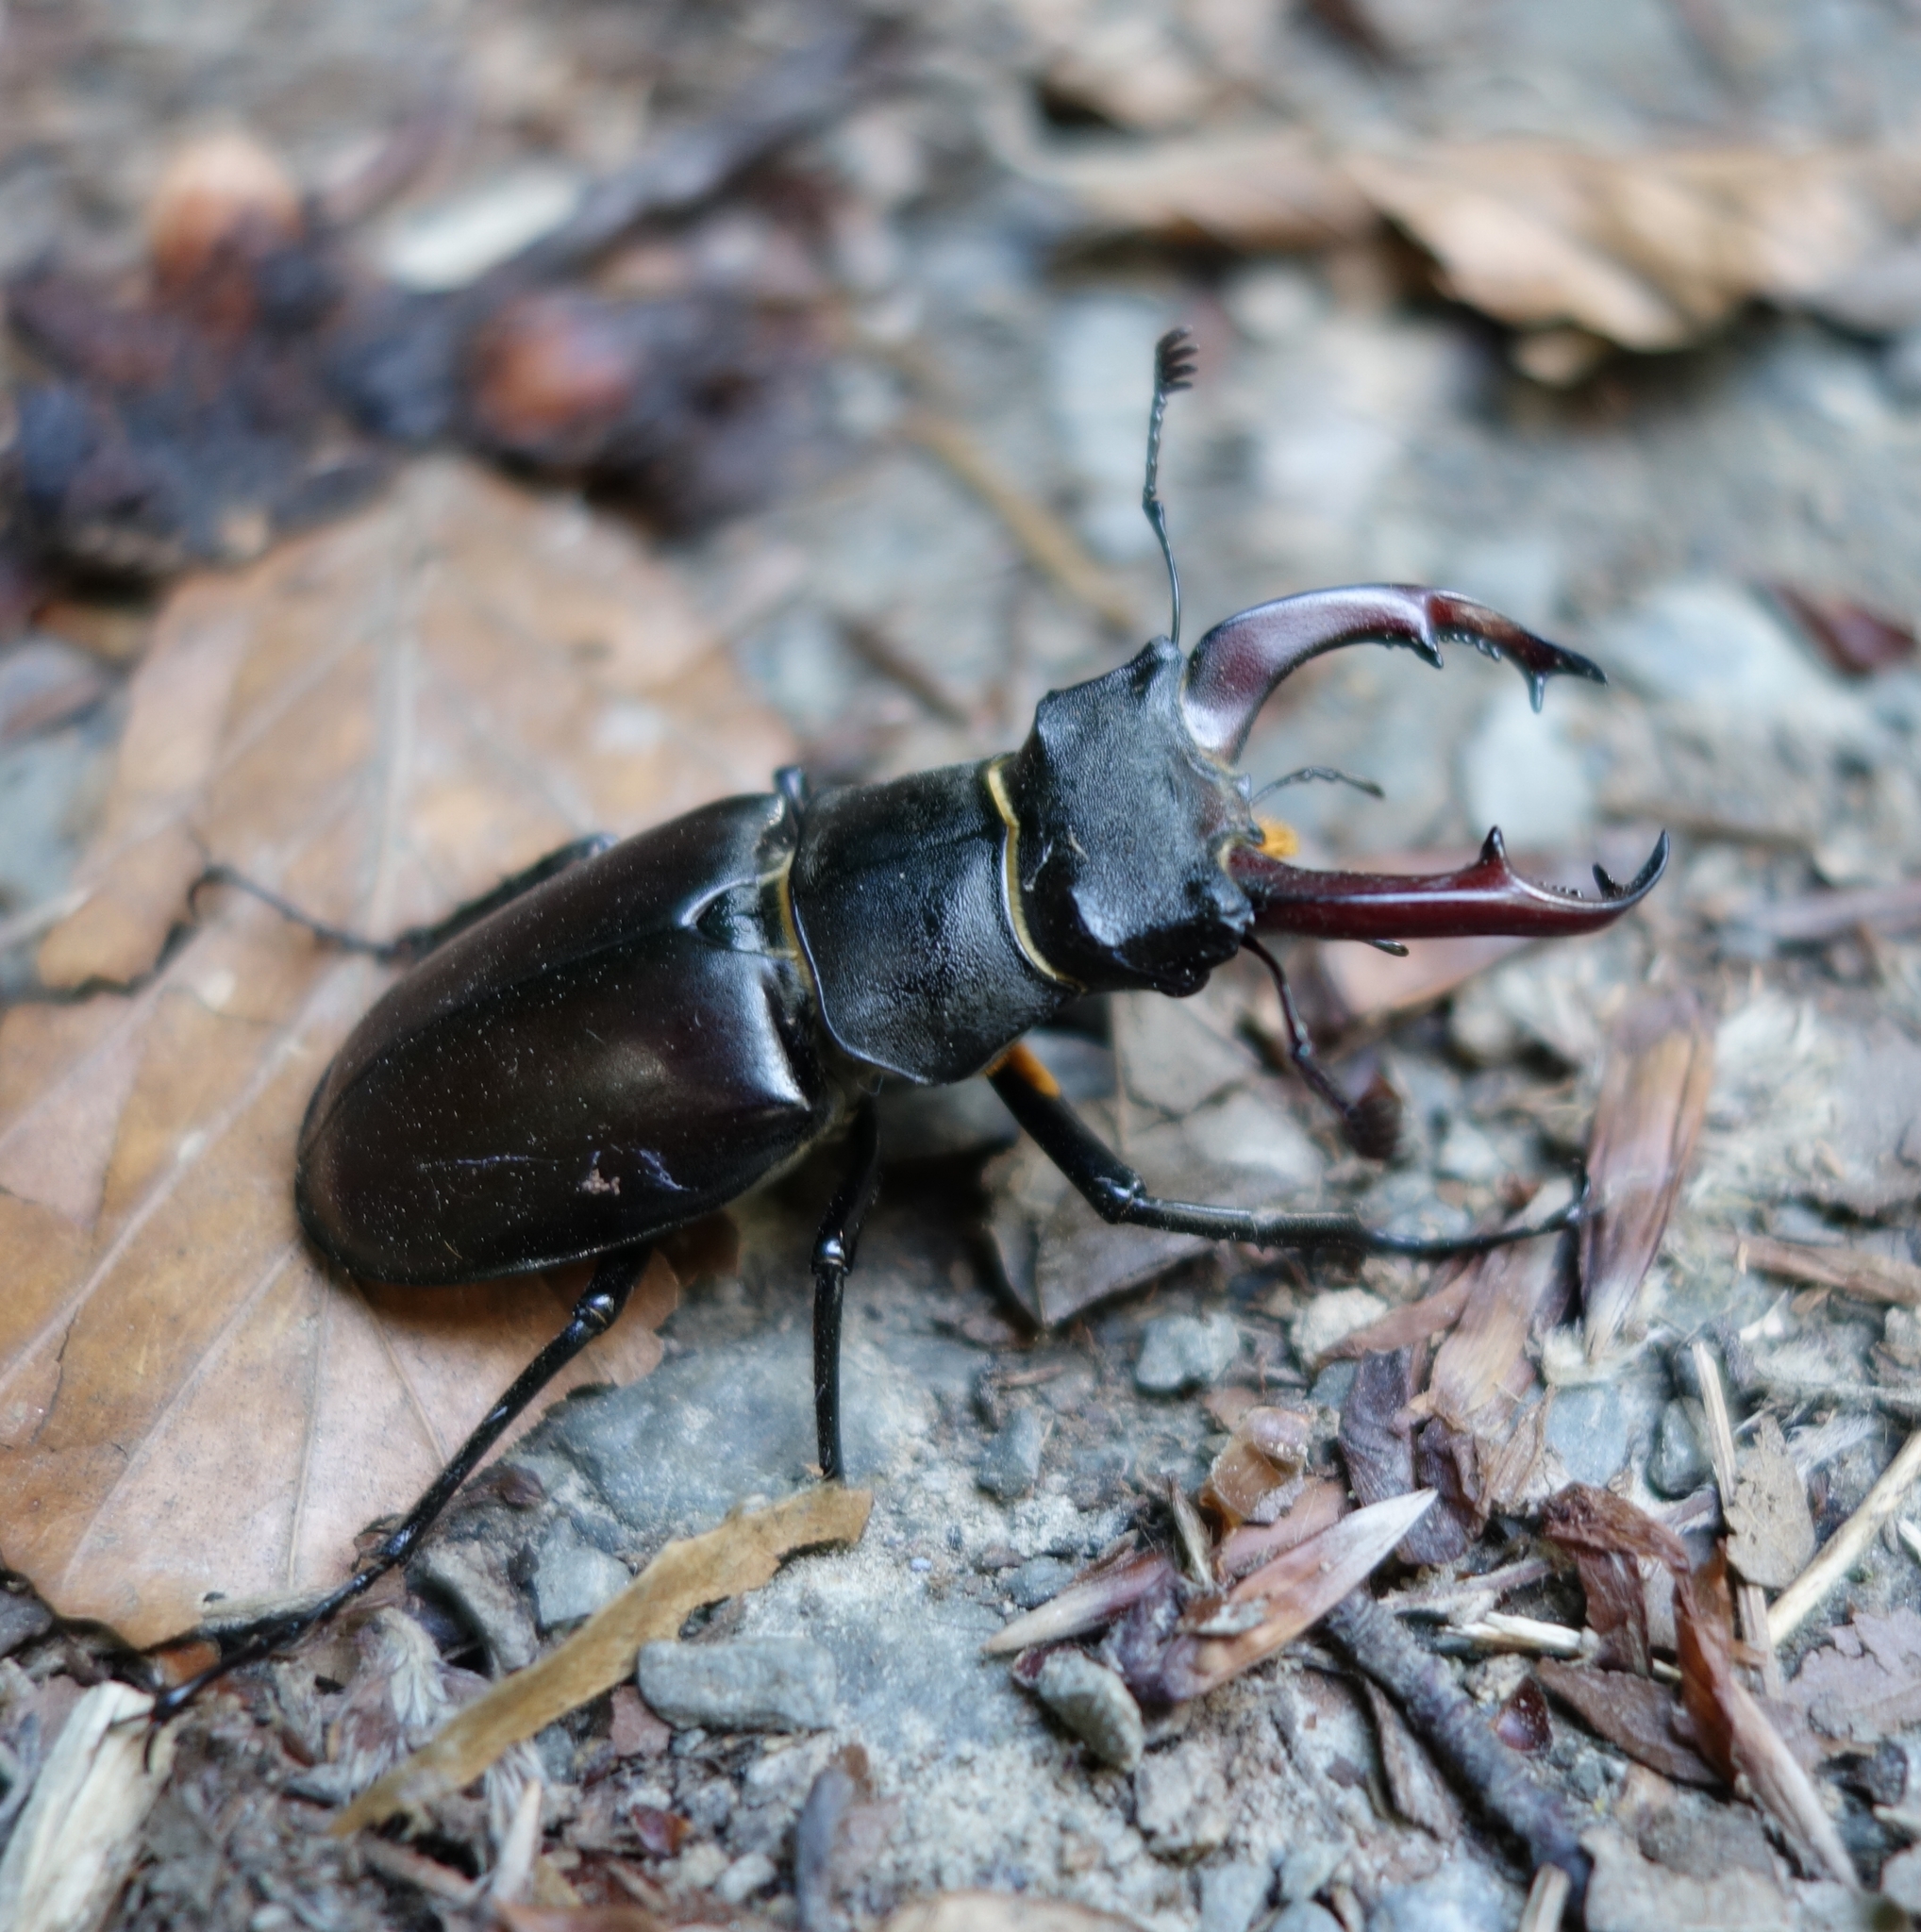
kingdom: Animalia
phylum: Arthropoda
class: Insecta
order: Coleoptera
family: Lucanidae
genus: Lucanus
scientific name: Lucanus cervus
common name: Stag beetle
